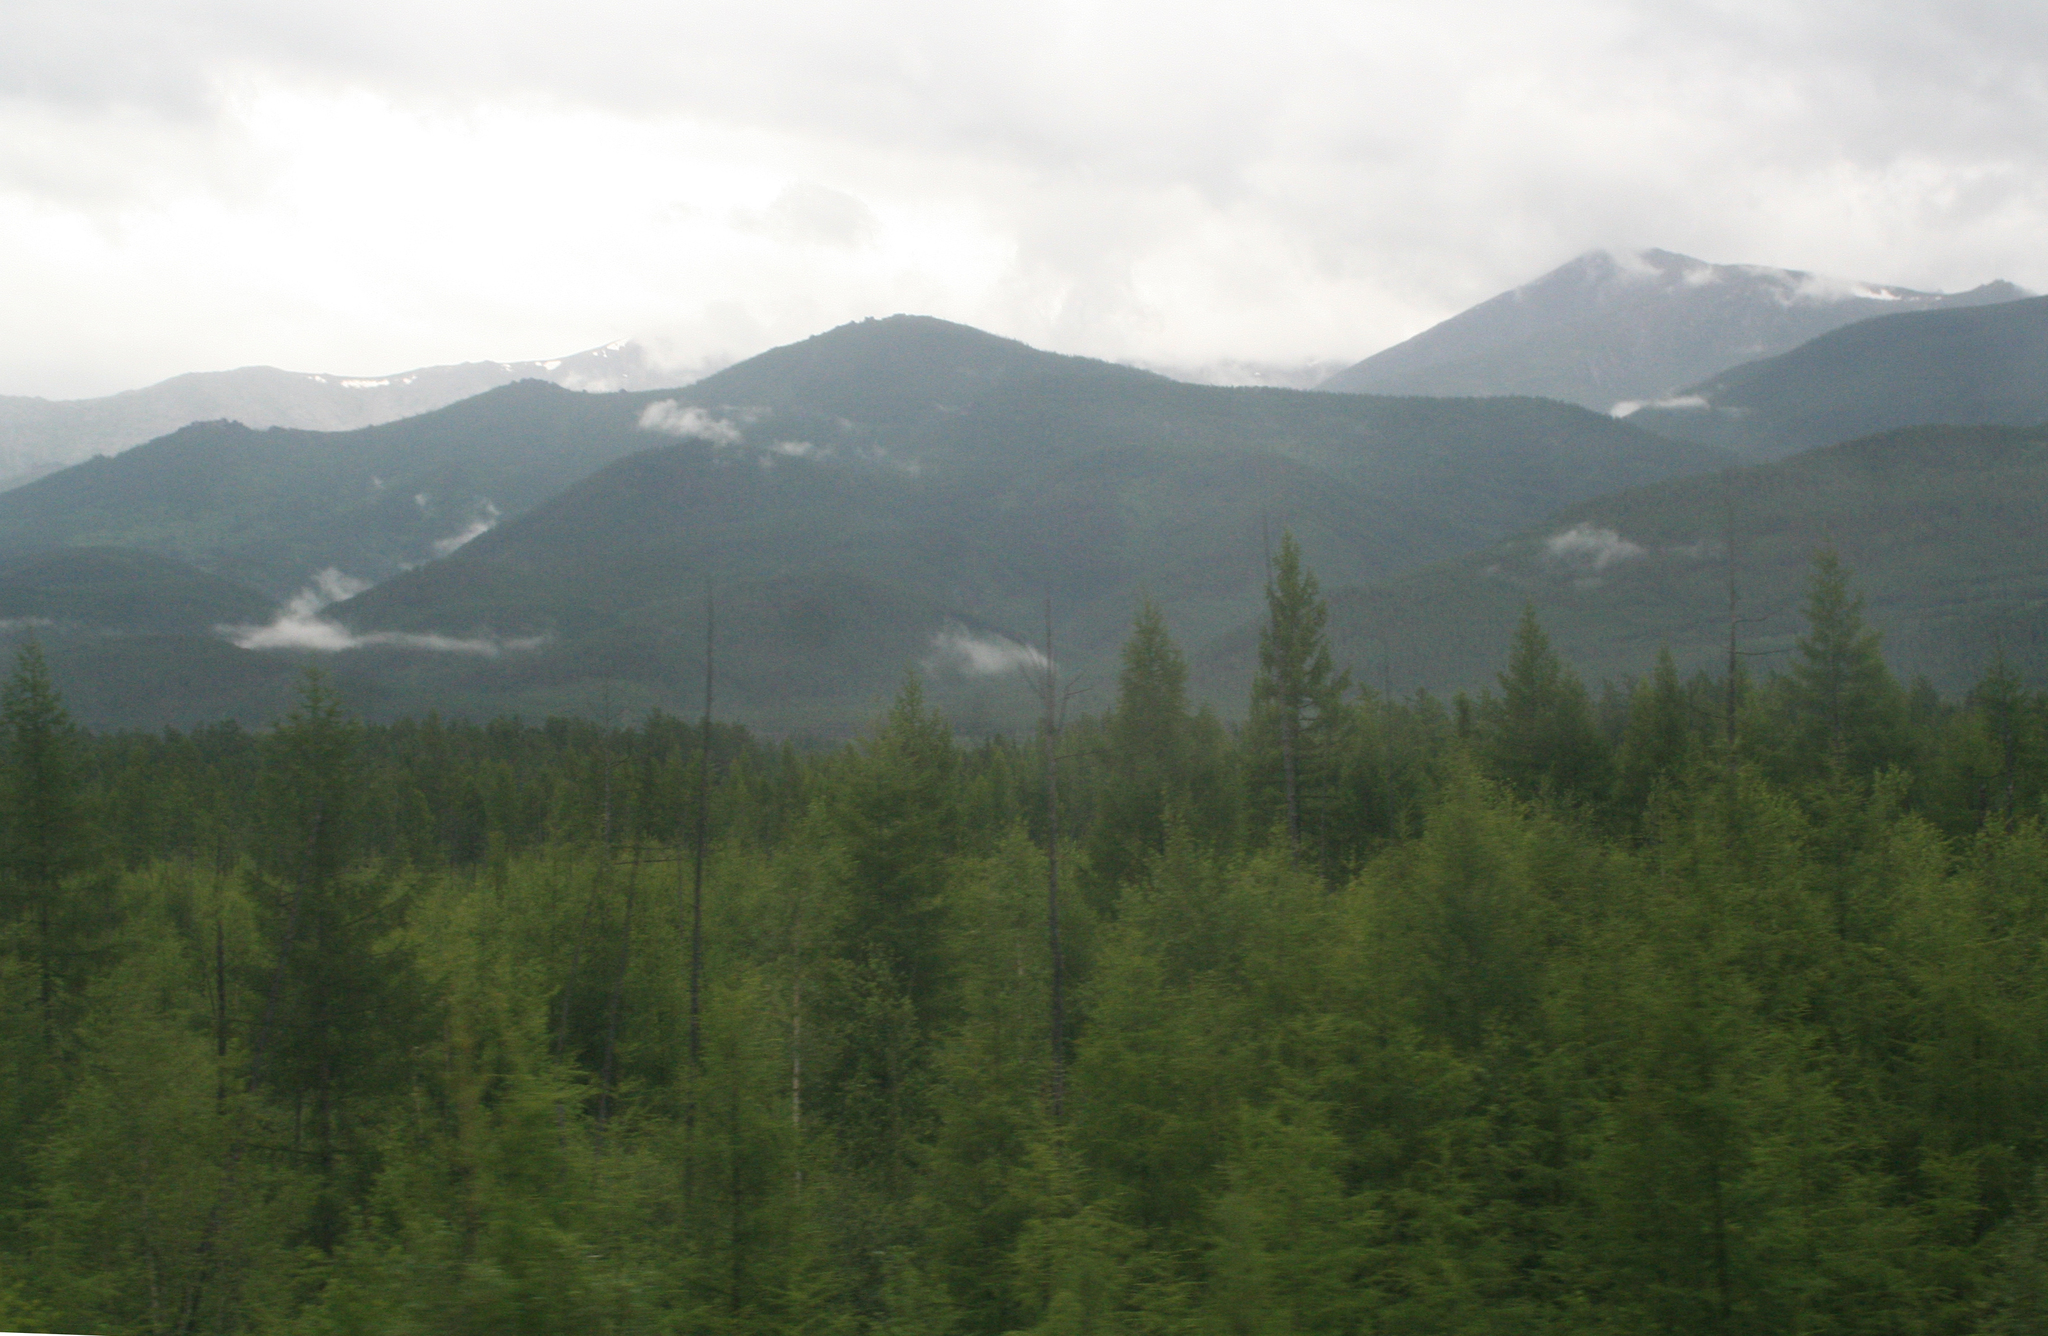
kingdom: Plantae
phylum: Tracheophyta
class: Pinopsida
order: Pinales
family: Pinaceae
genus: Larix
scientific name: Larix gmelinii
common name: Dahurian larch
